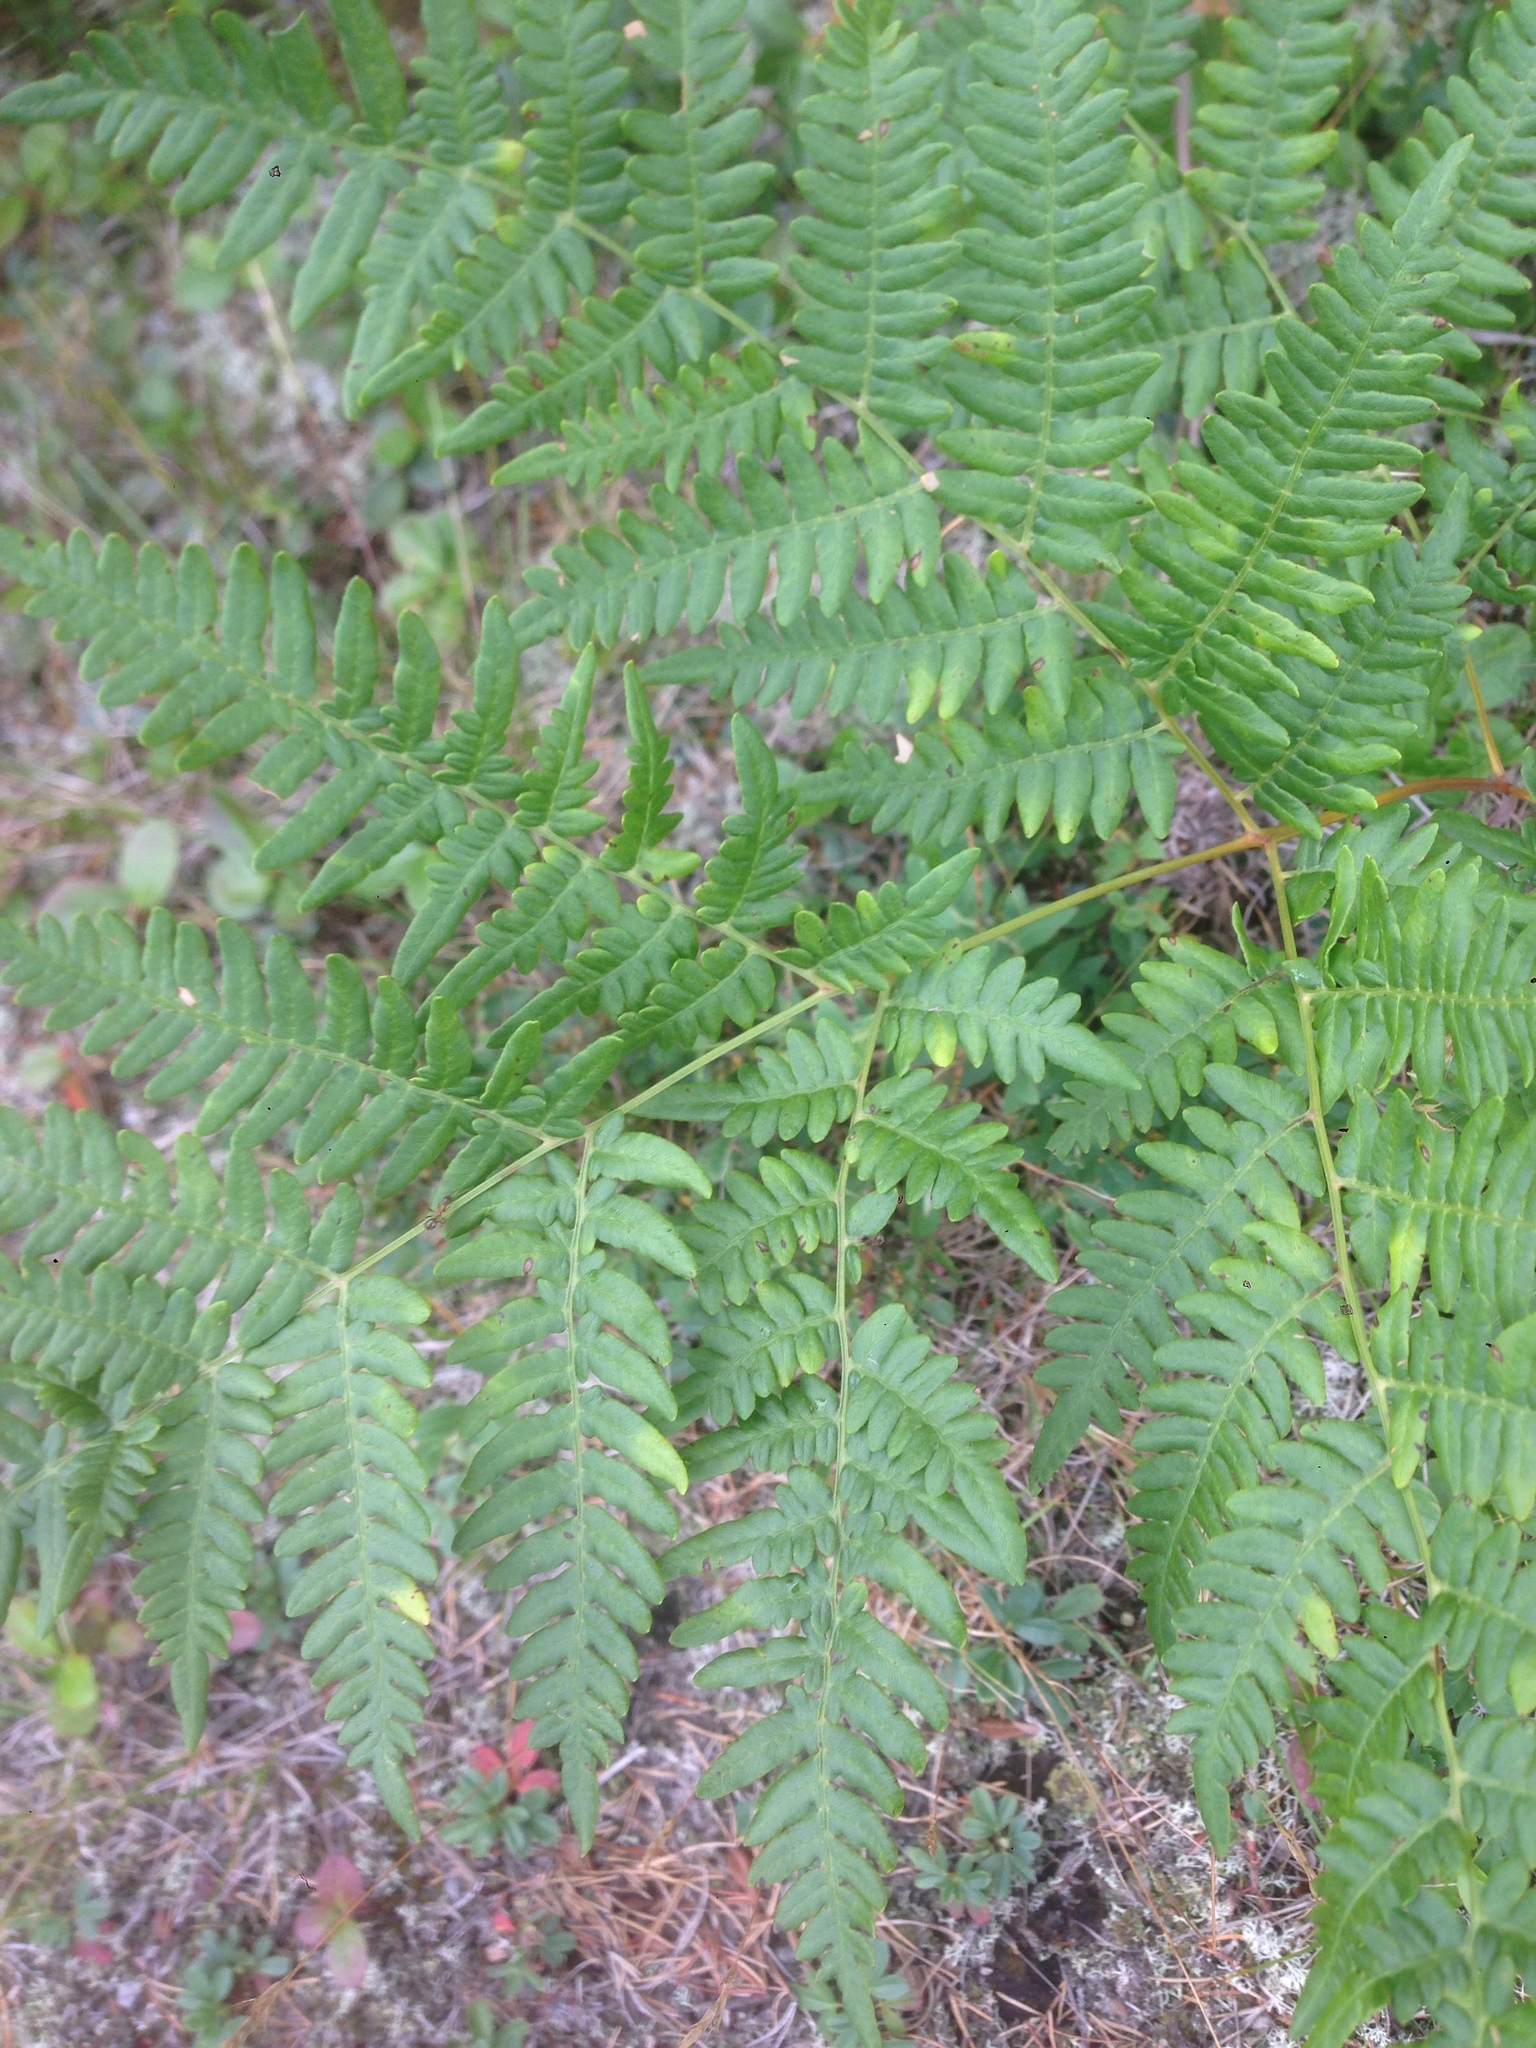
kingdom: Plantae
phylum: Tracheophyta
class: Polypodiopsida
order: Polypodiales
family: Dennstaedtiaceae
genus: Pteridium
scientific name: Pteridium aquilinum
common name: Bracken
